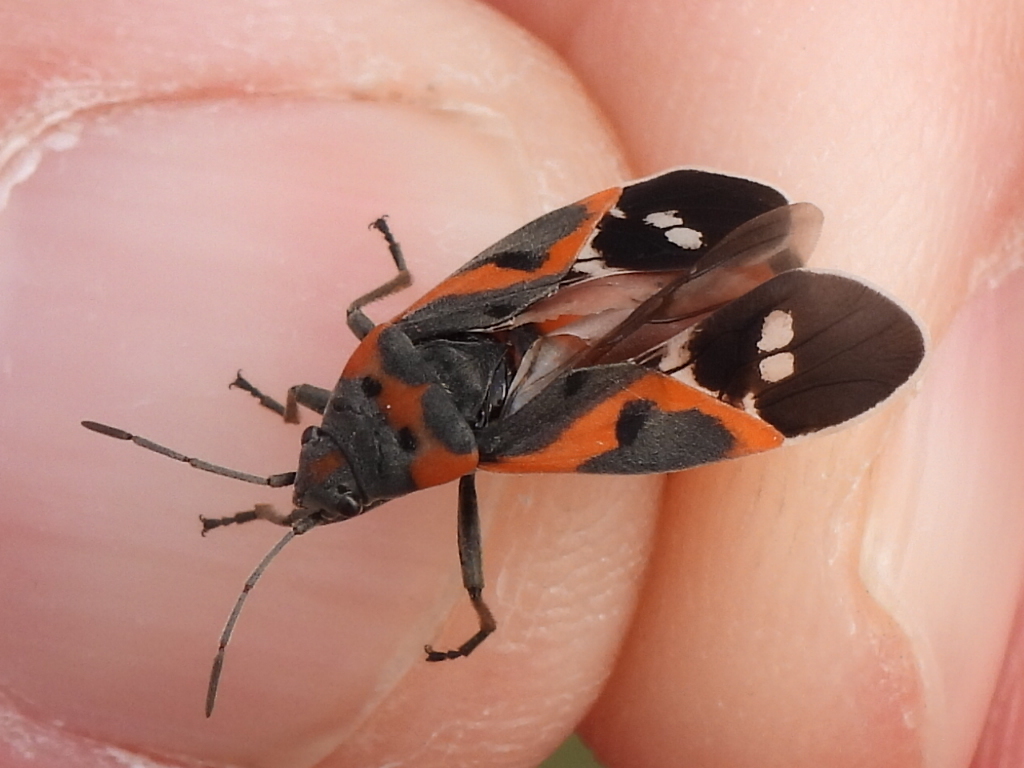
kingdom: Animalia
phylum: Arthropoda
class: Insecta
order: Hemiptera
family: Lygaeidae
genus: Lygaeus
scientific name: Lygaeus kalmii
